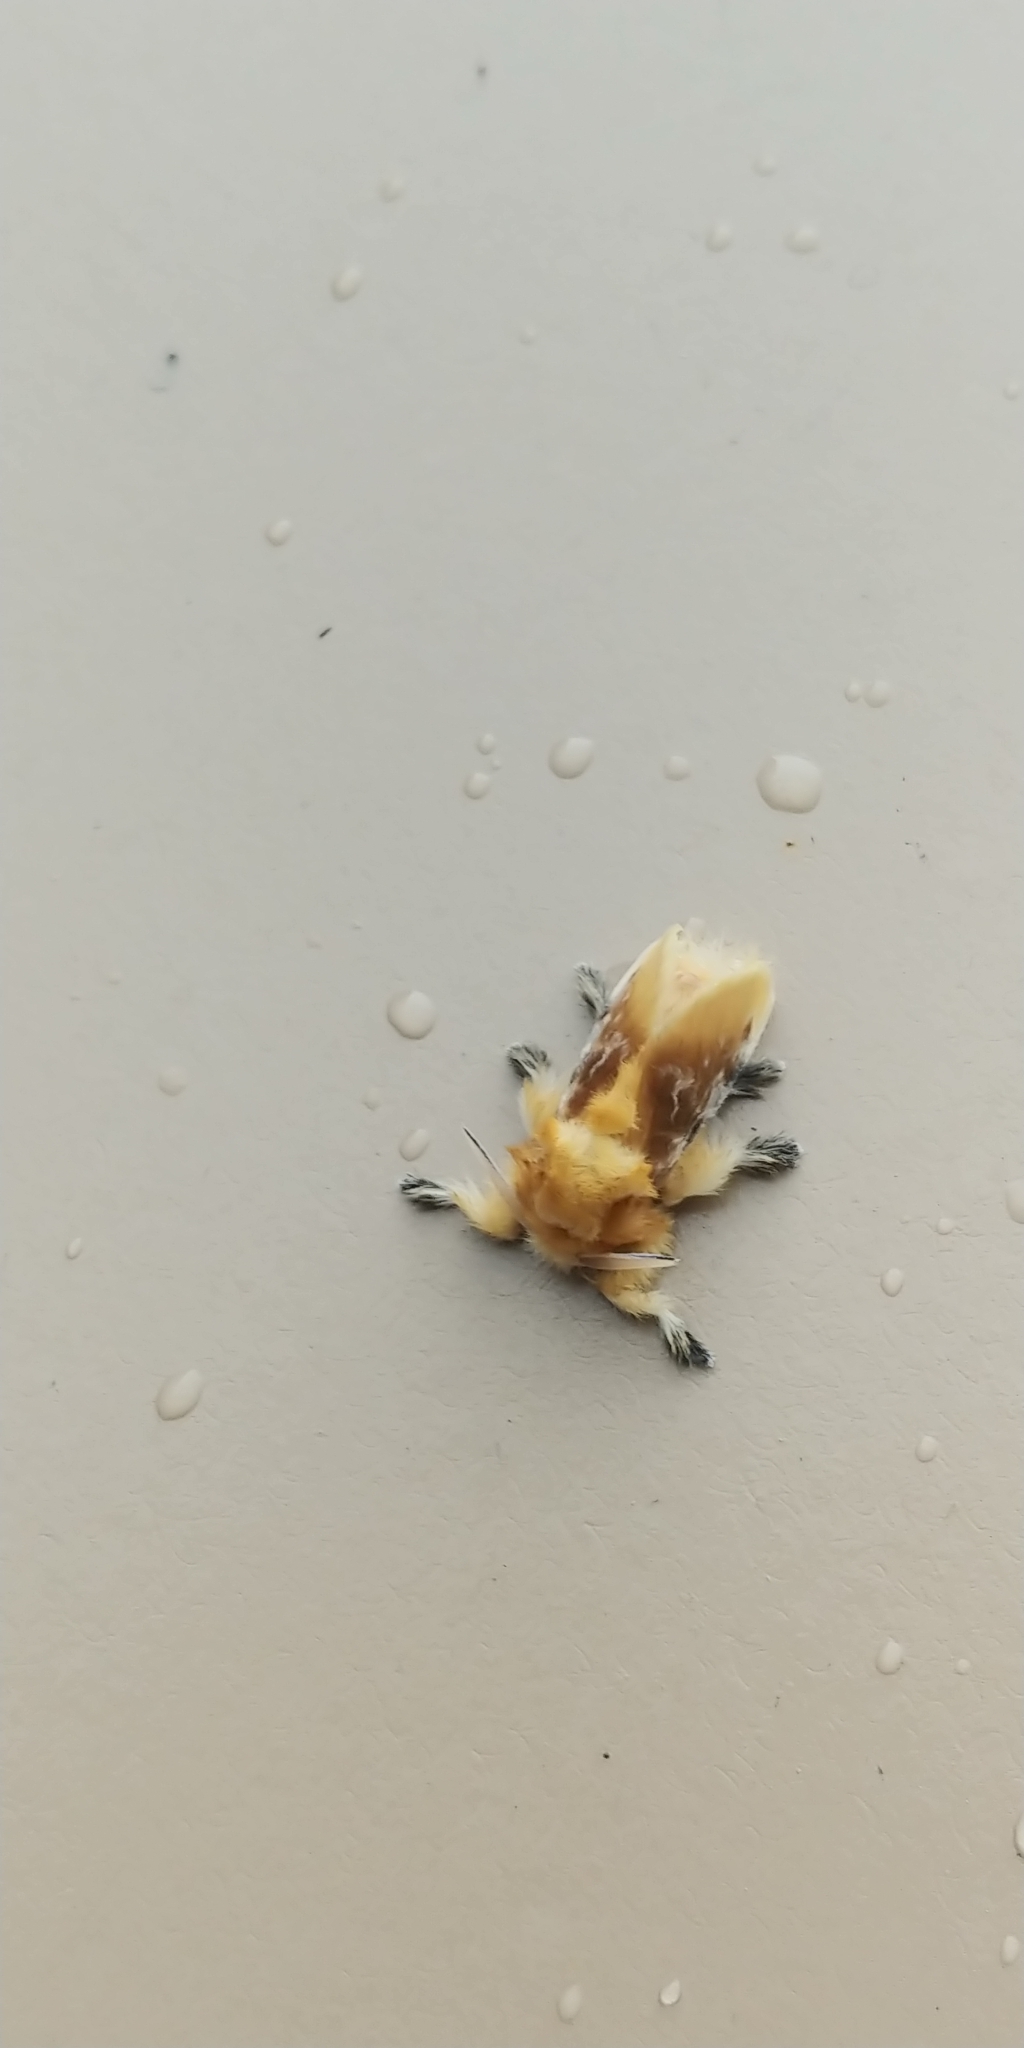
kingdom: Animalia
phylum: Arthropoda
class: Insecta
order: Lepidoptera
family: Megalopygidae
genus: Megalopyge
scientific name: Megalopyge opercularis
